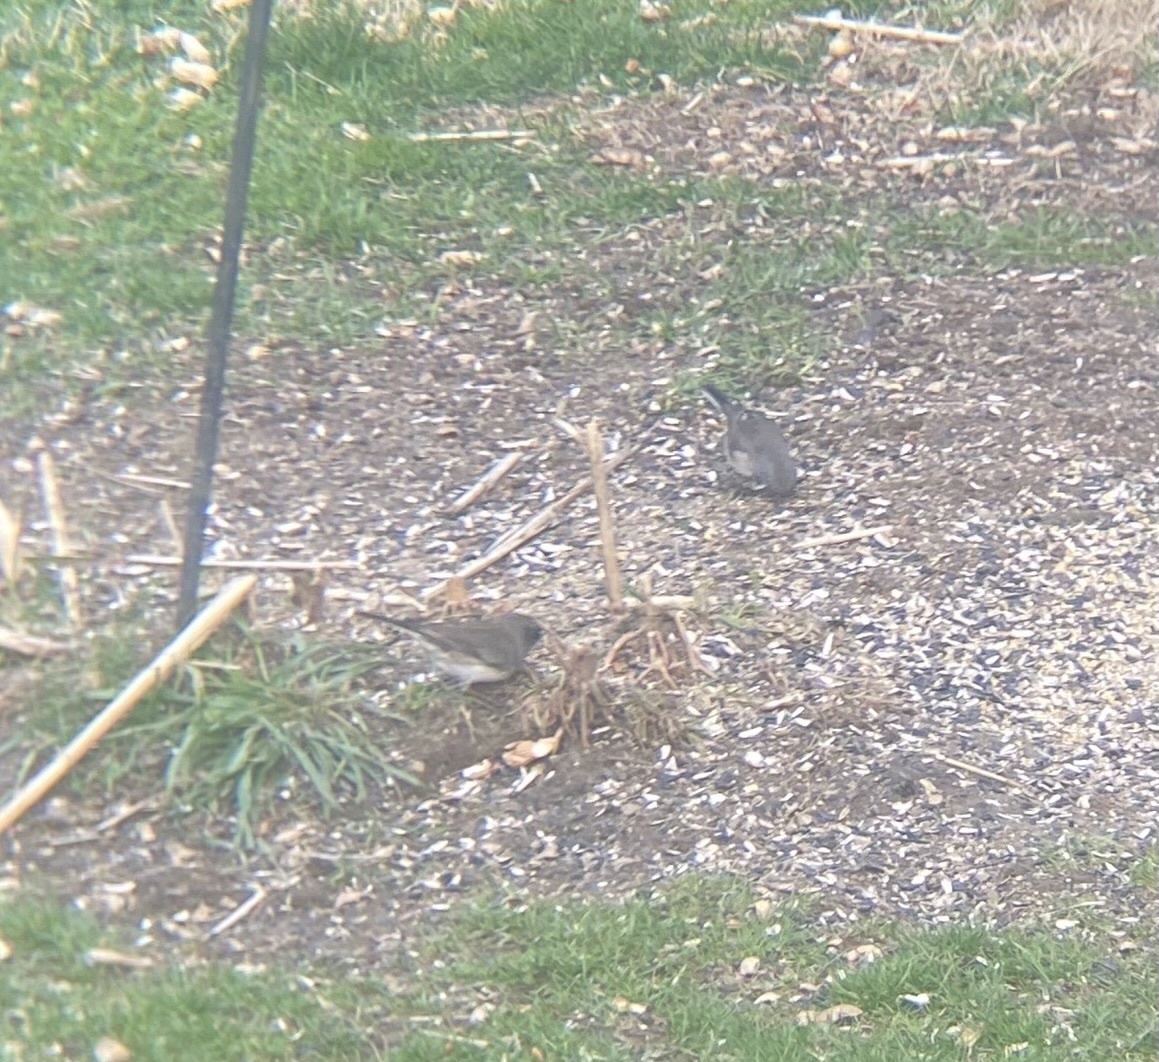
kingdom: Animalia
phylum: Chordata
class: Aves
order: Passeriformes
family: Passerellidae
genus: Junco
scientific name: Junco hyemalis
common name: Dark-eyed junco
